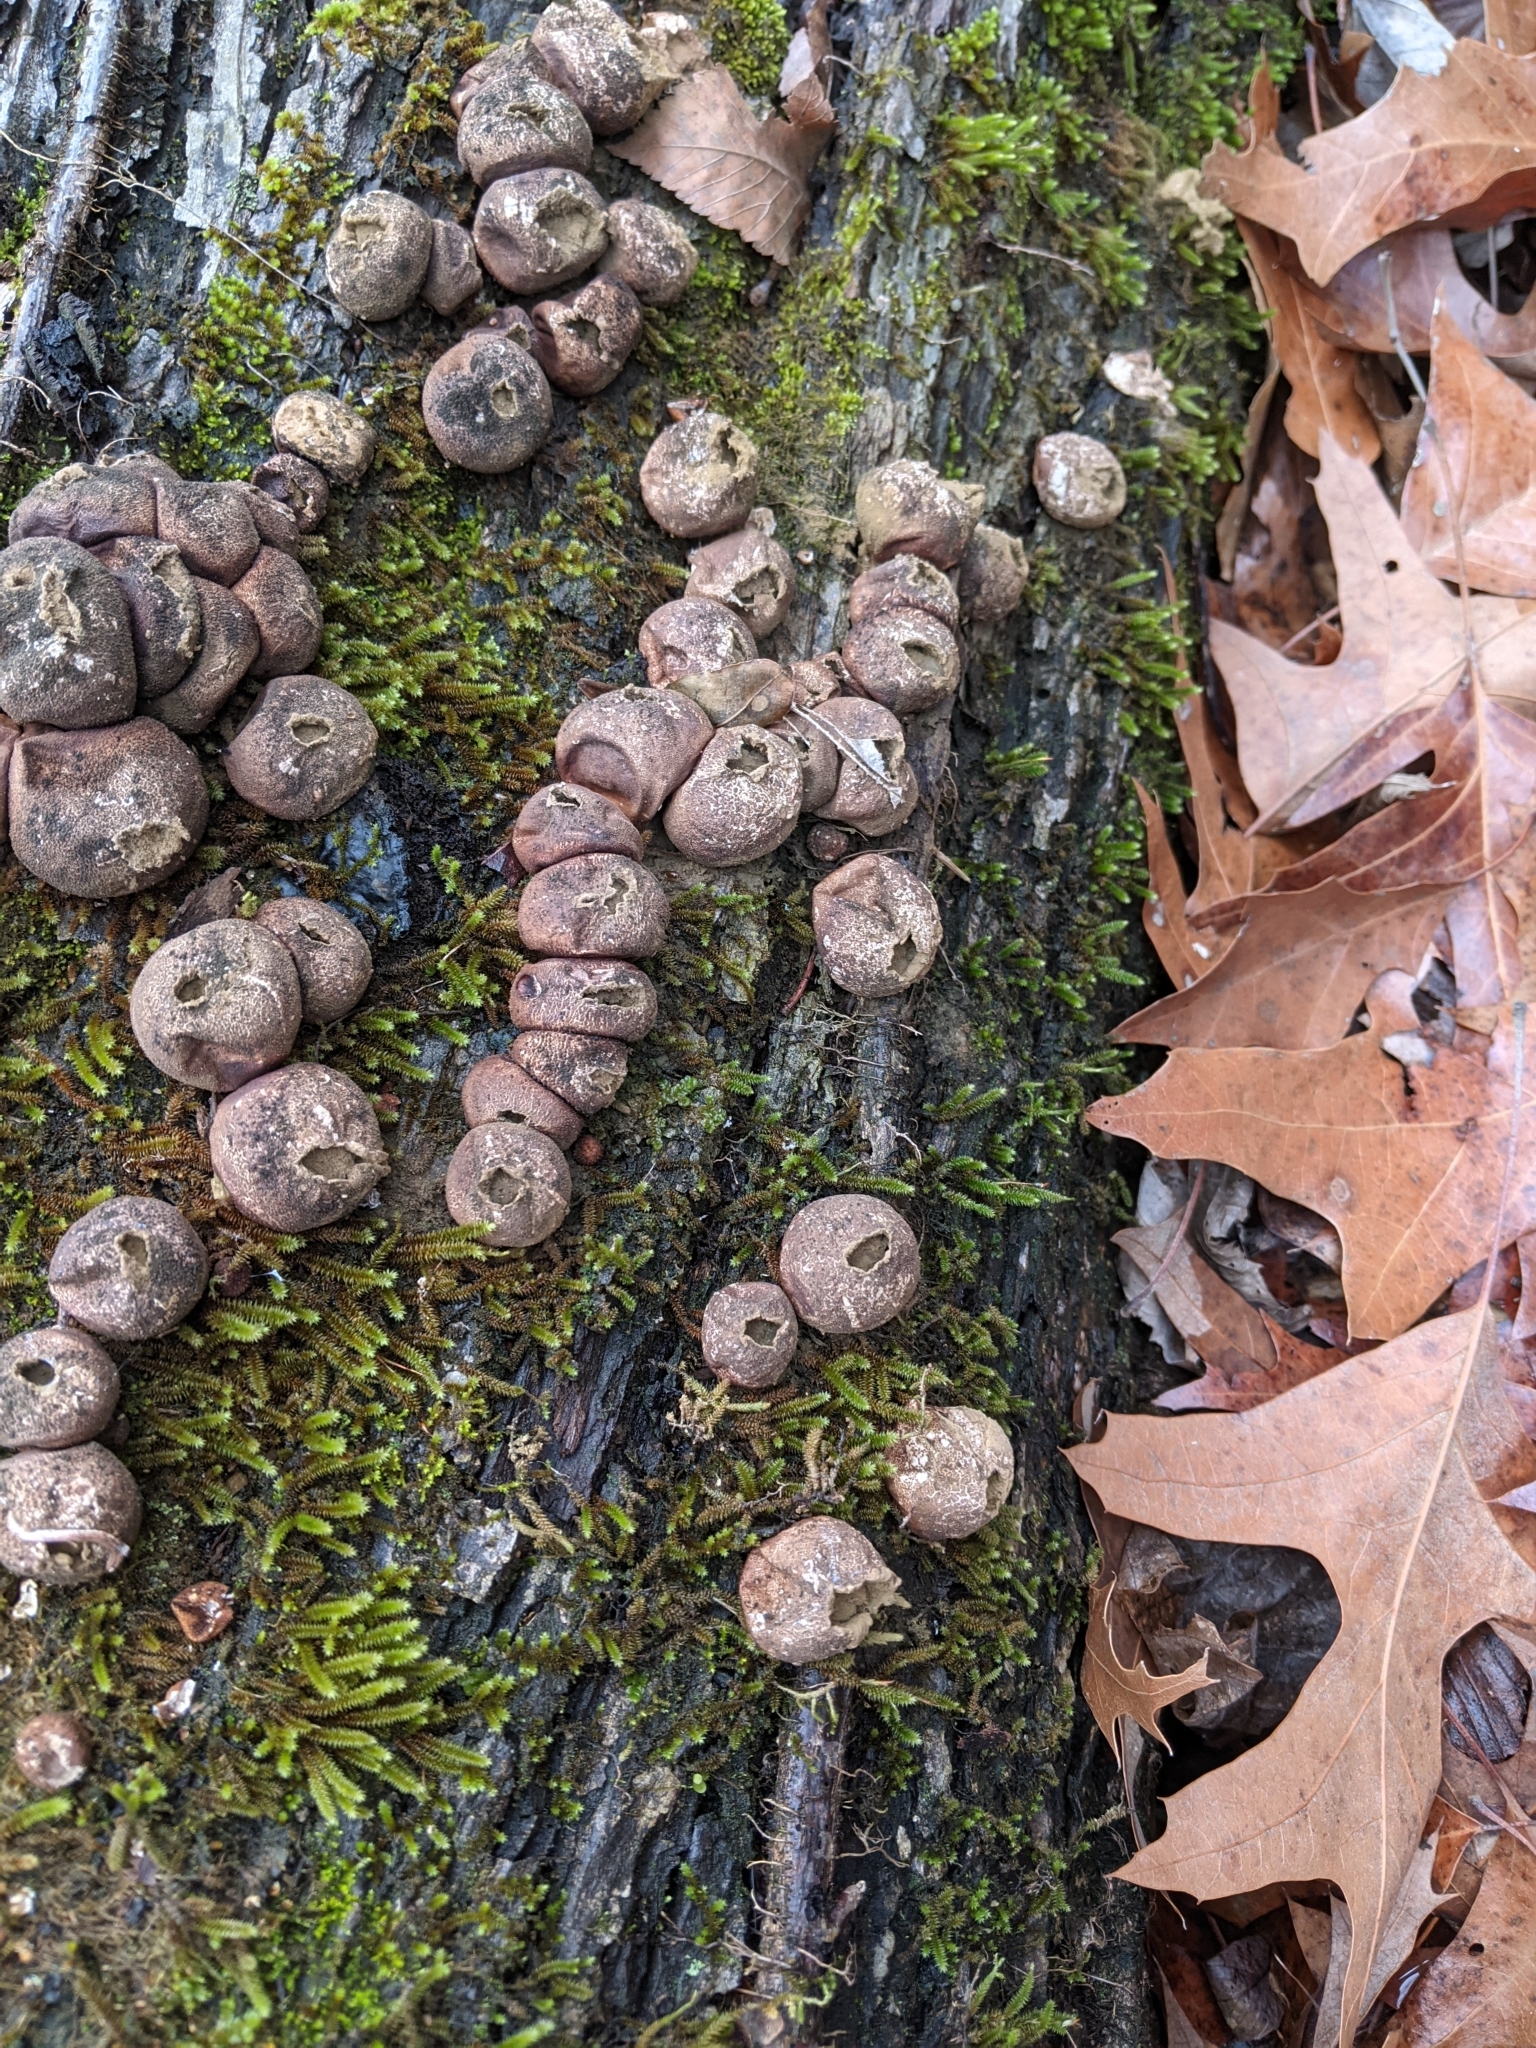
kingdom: Fungi
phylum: Basidiomycota
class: Agaricomycetes
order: Agaricales
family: Lycoperdaceae
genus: Apioperdon
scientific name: Apioperdon pyriforme
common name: Pear-shaped puffball
